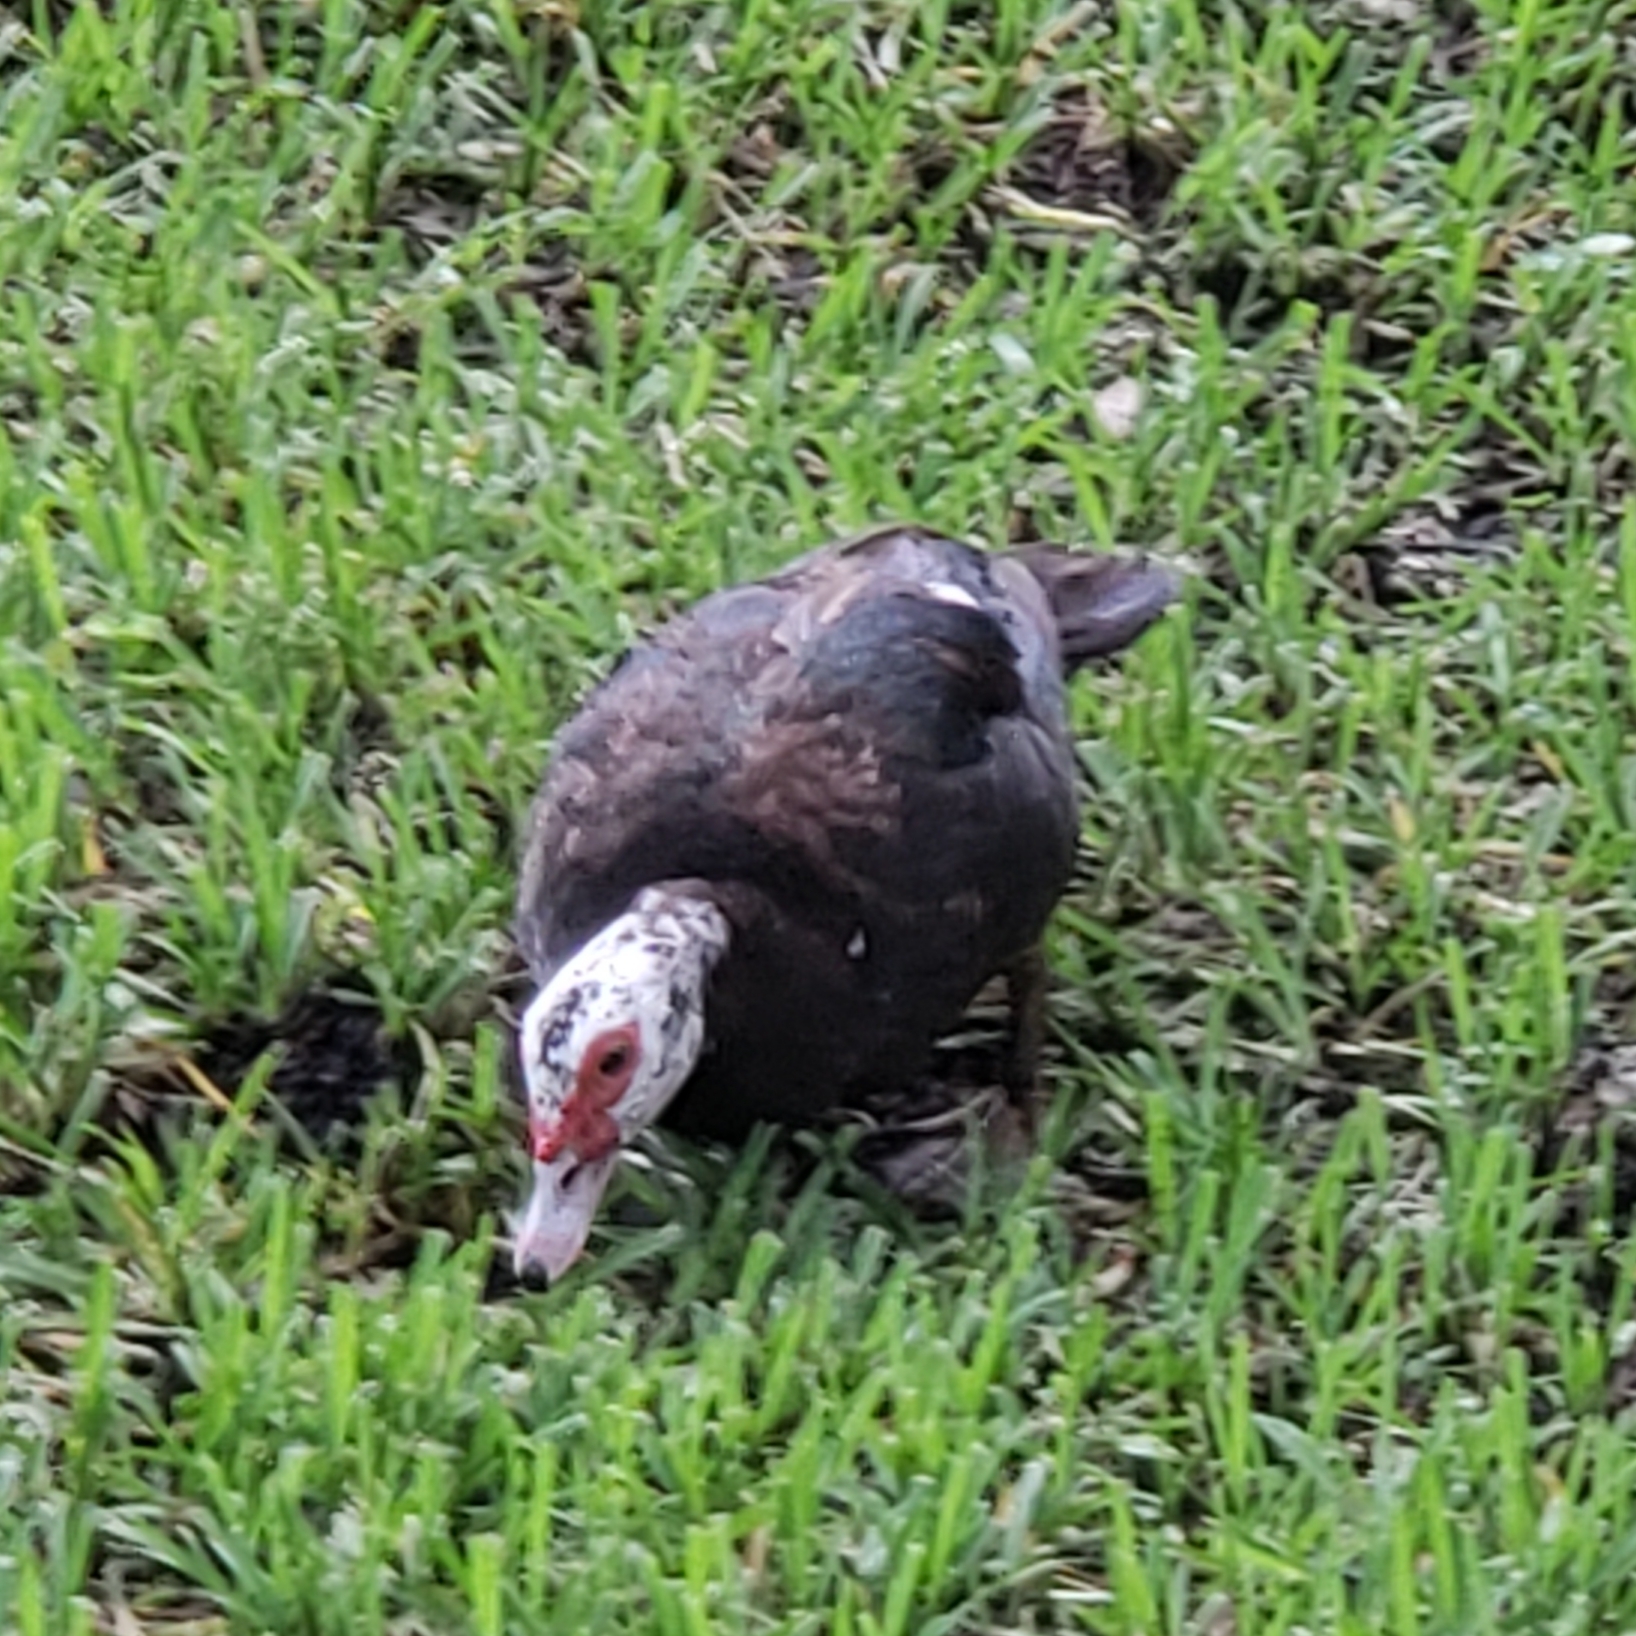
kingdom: Animalia
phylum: Chordata
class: Aves
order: Anseriformes
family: Anatidae
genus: Cairina
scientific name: Cairina moschata
